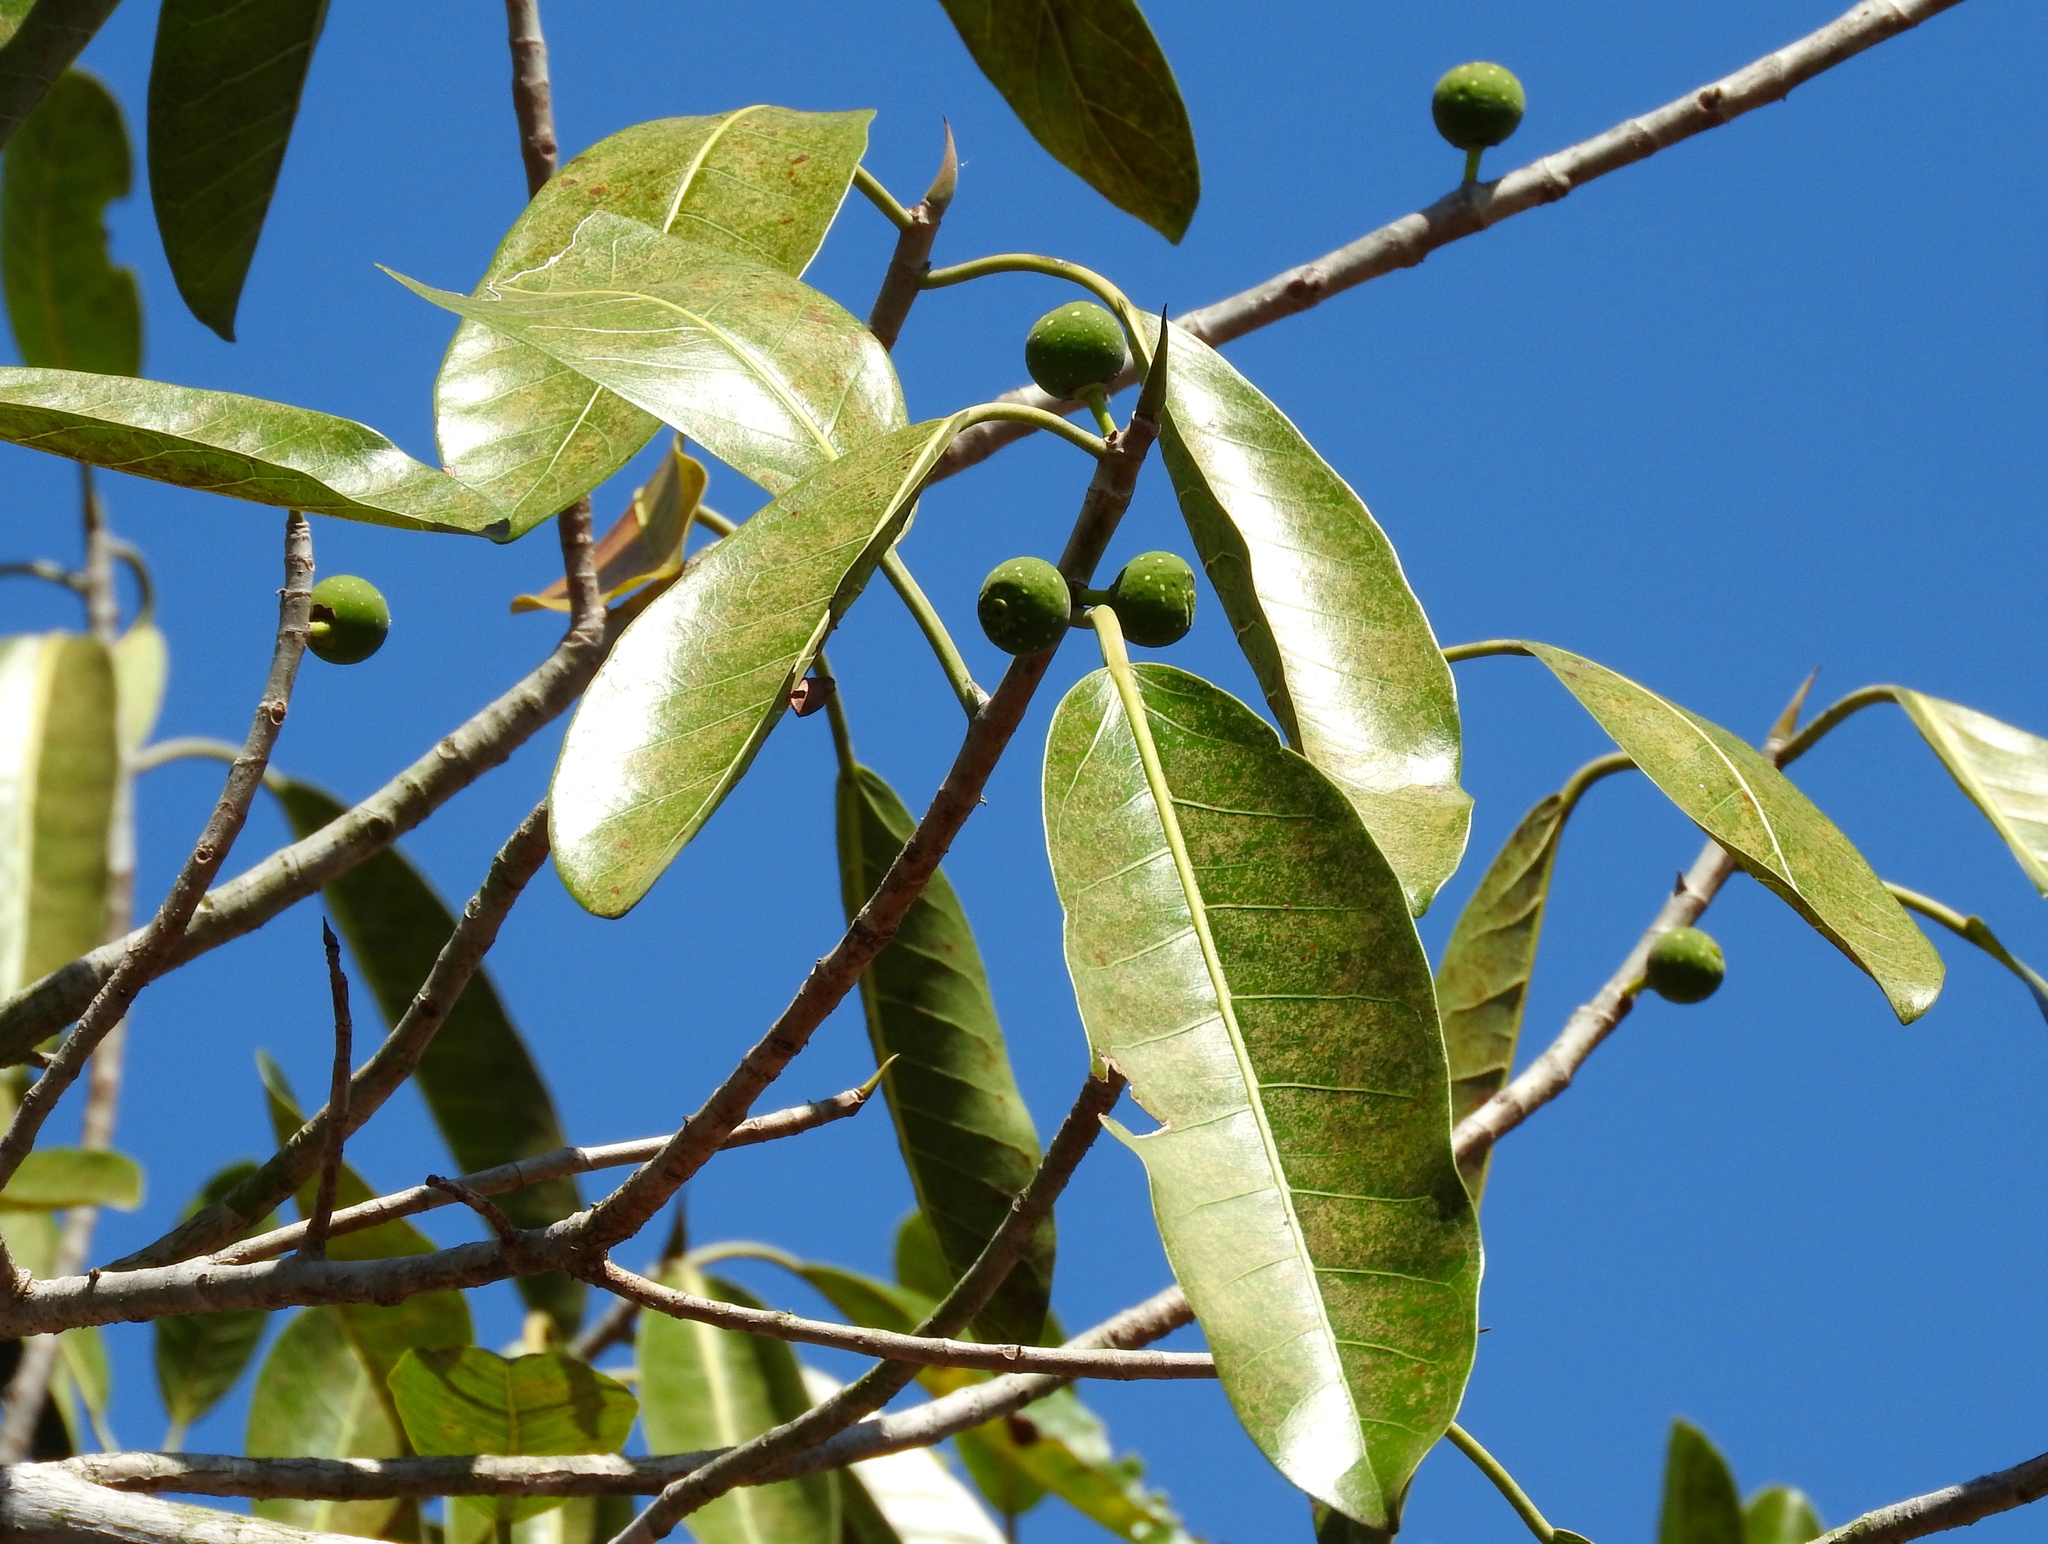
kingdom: Plantae
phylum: Tracheophyta
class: Magnoliopsida
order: Rosales
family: Moraceae
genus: Ficus
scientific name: Ficus crocata
